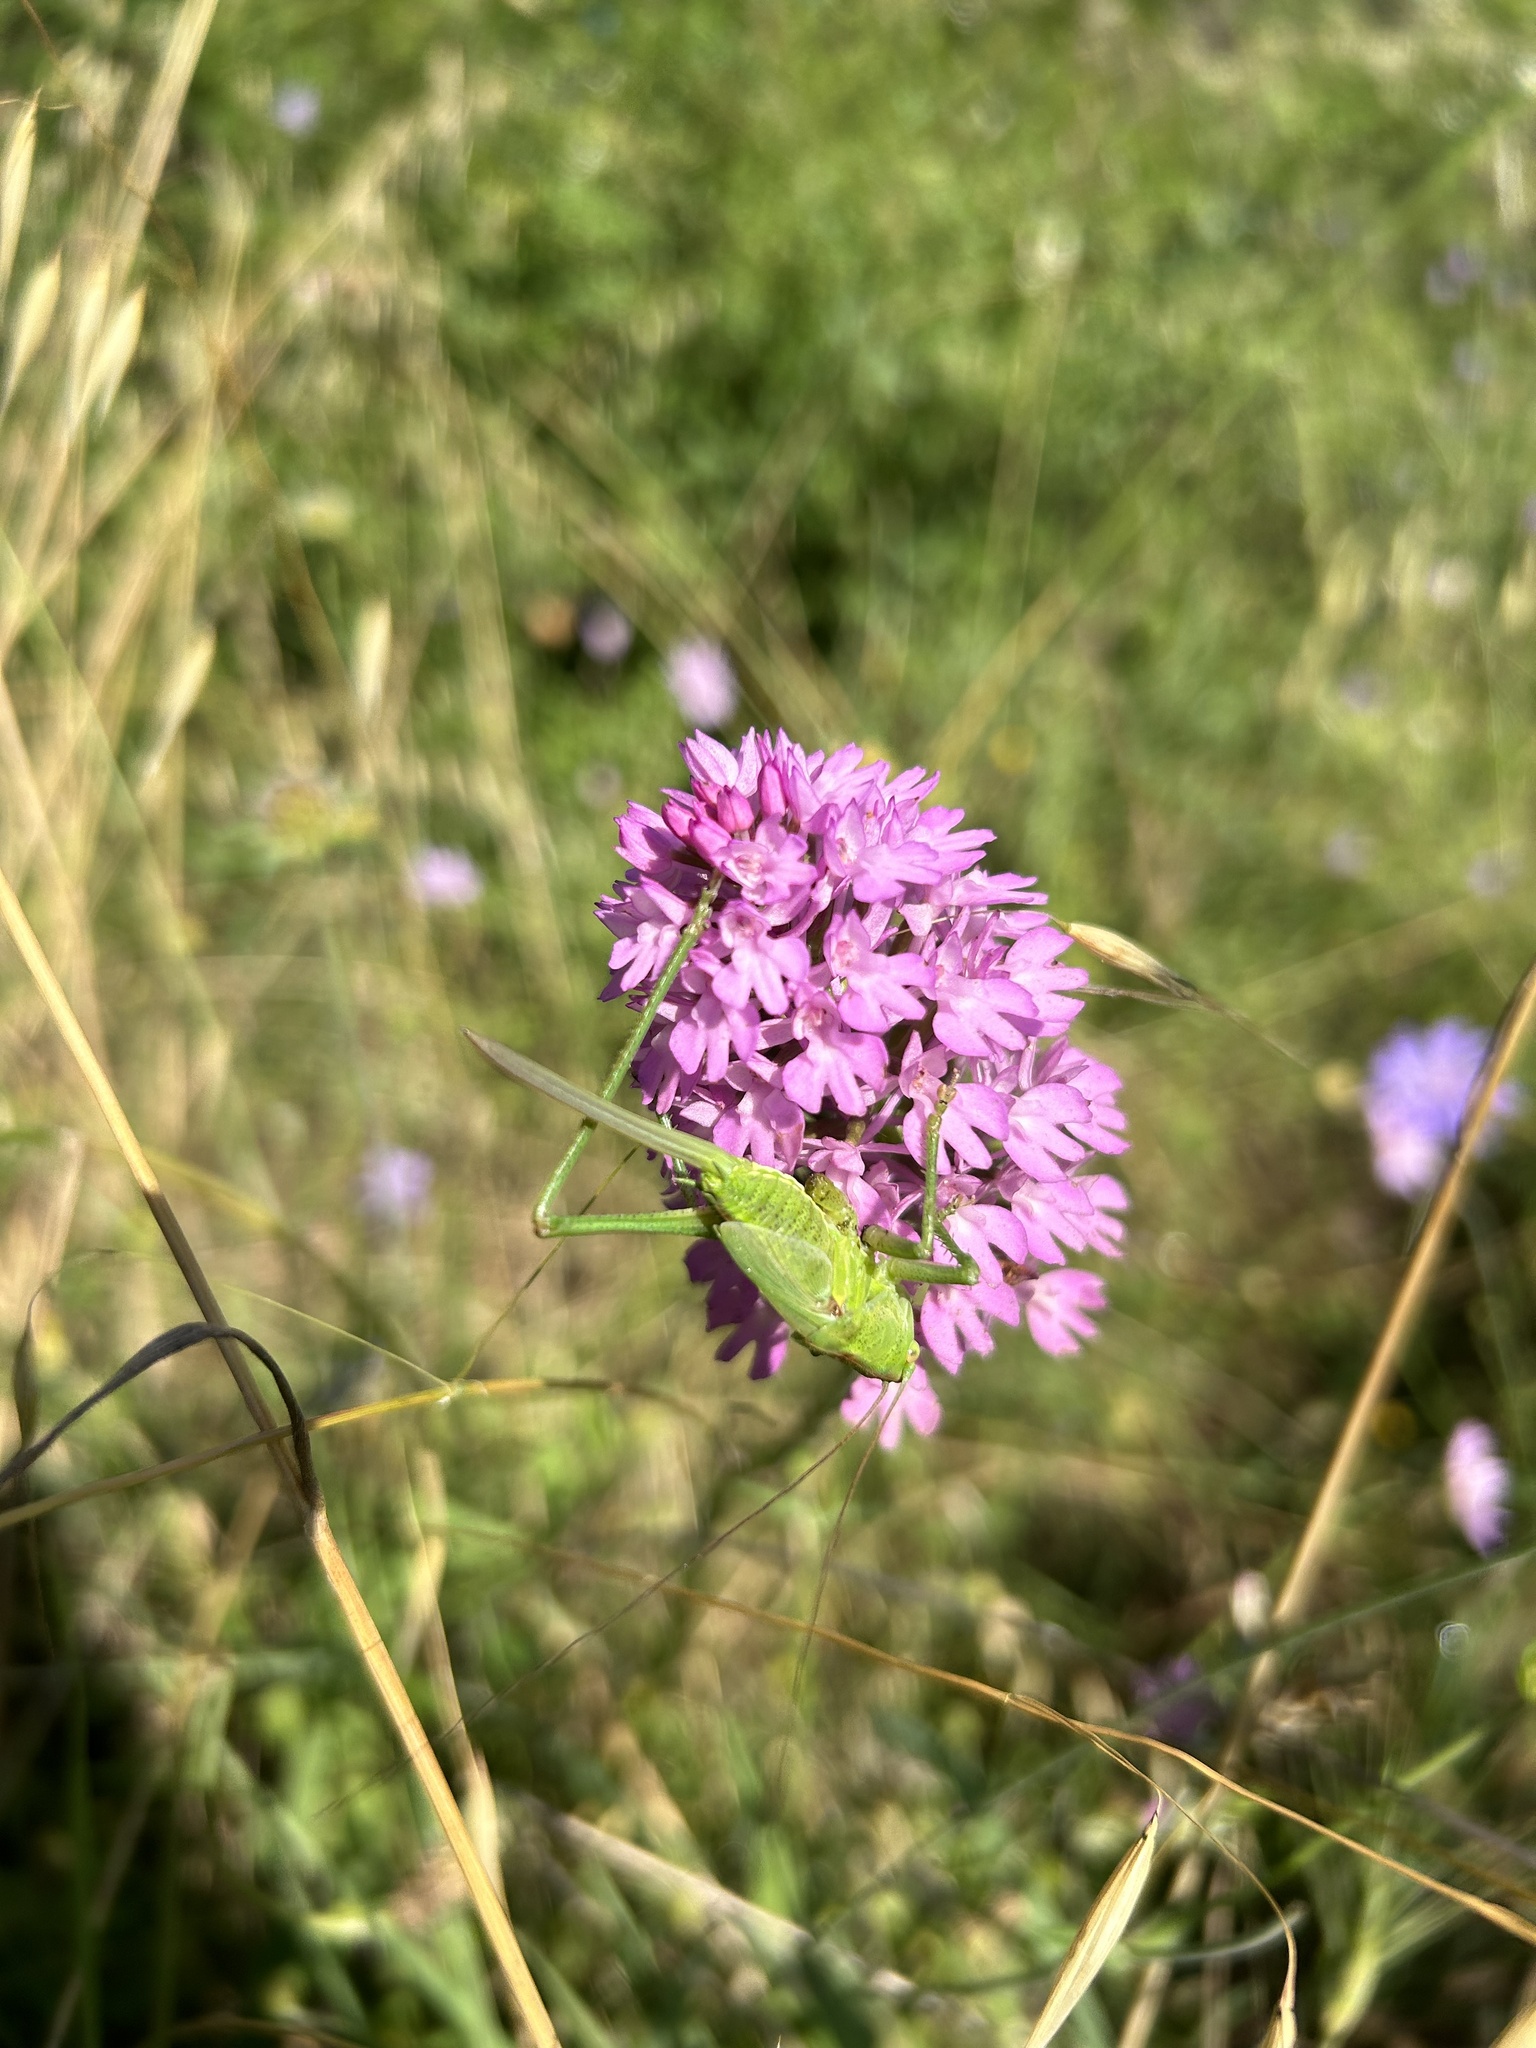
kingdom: Animalia
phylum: Arthropoda
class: Insecta
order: Orthoptera
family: Tettigoniidae
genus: Phaneroptera
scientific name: Phaneroptera nana
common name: Southern sickle bush-cricket
